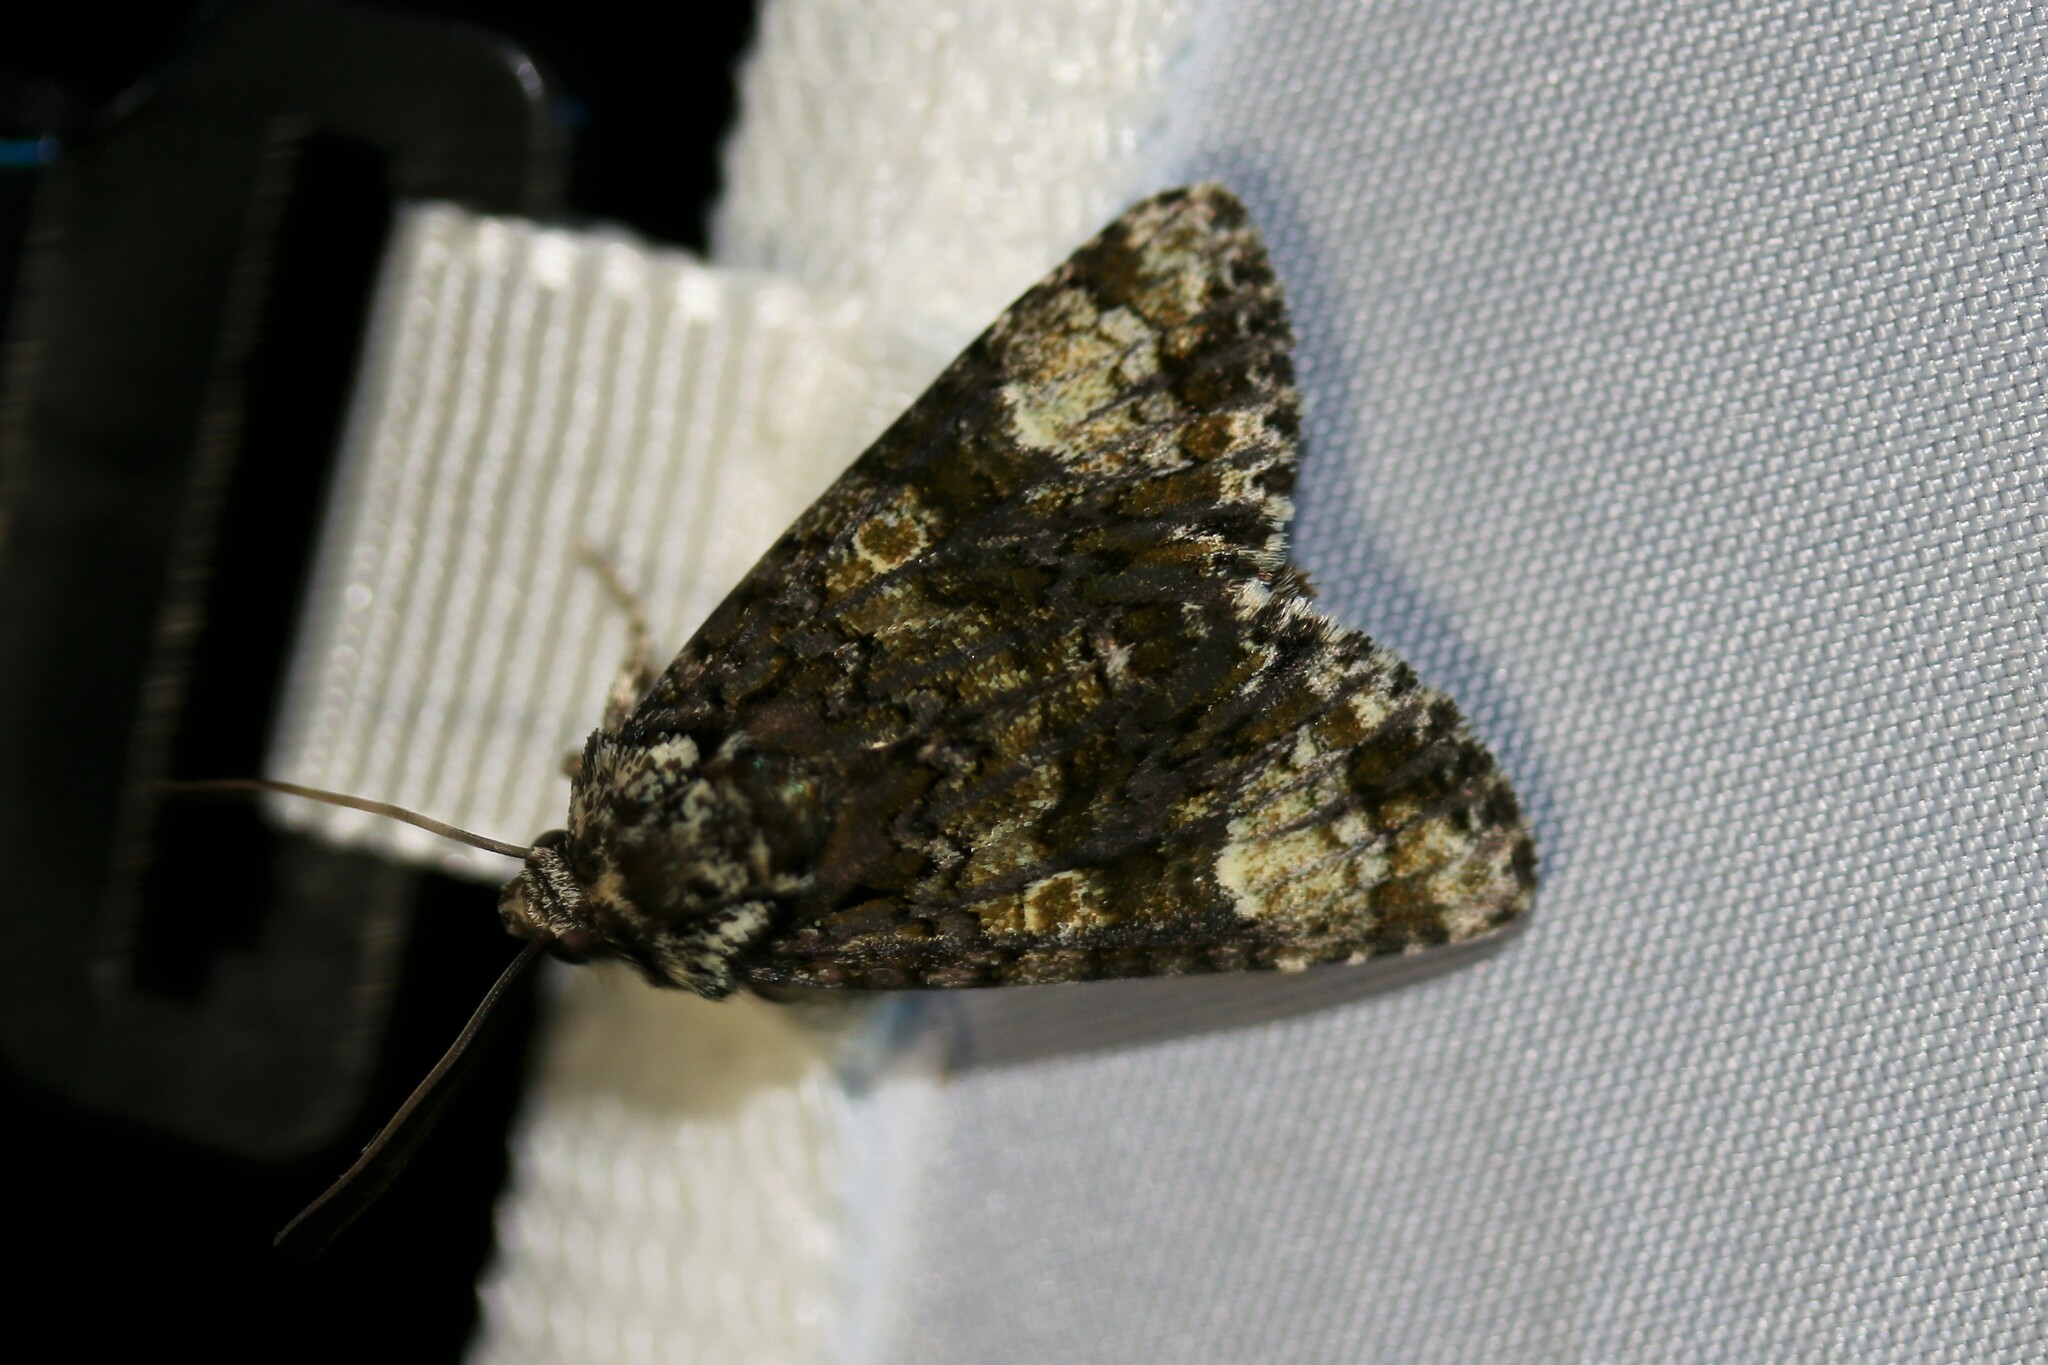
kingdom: Animalia
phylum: Arthropoda
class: Insecta
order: Lepidoptera
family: Noctuidae
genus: Craniophora
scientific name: Craniophora ligustri
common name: Coronet
